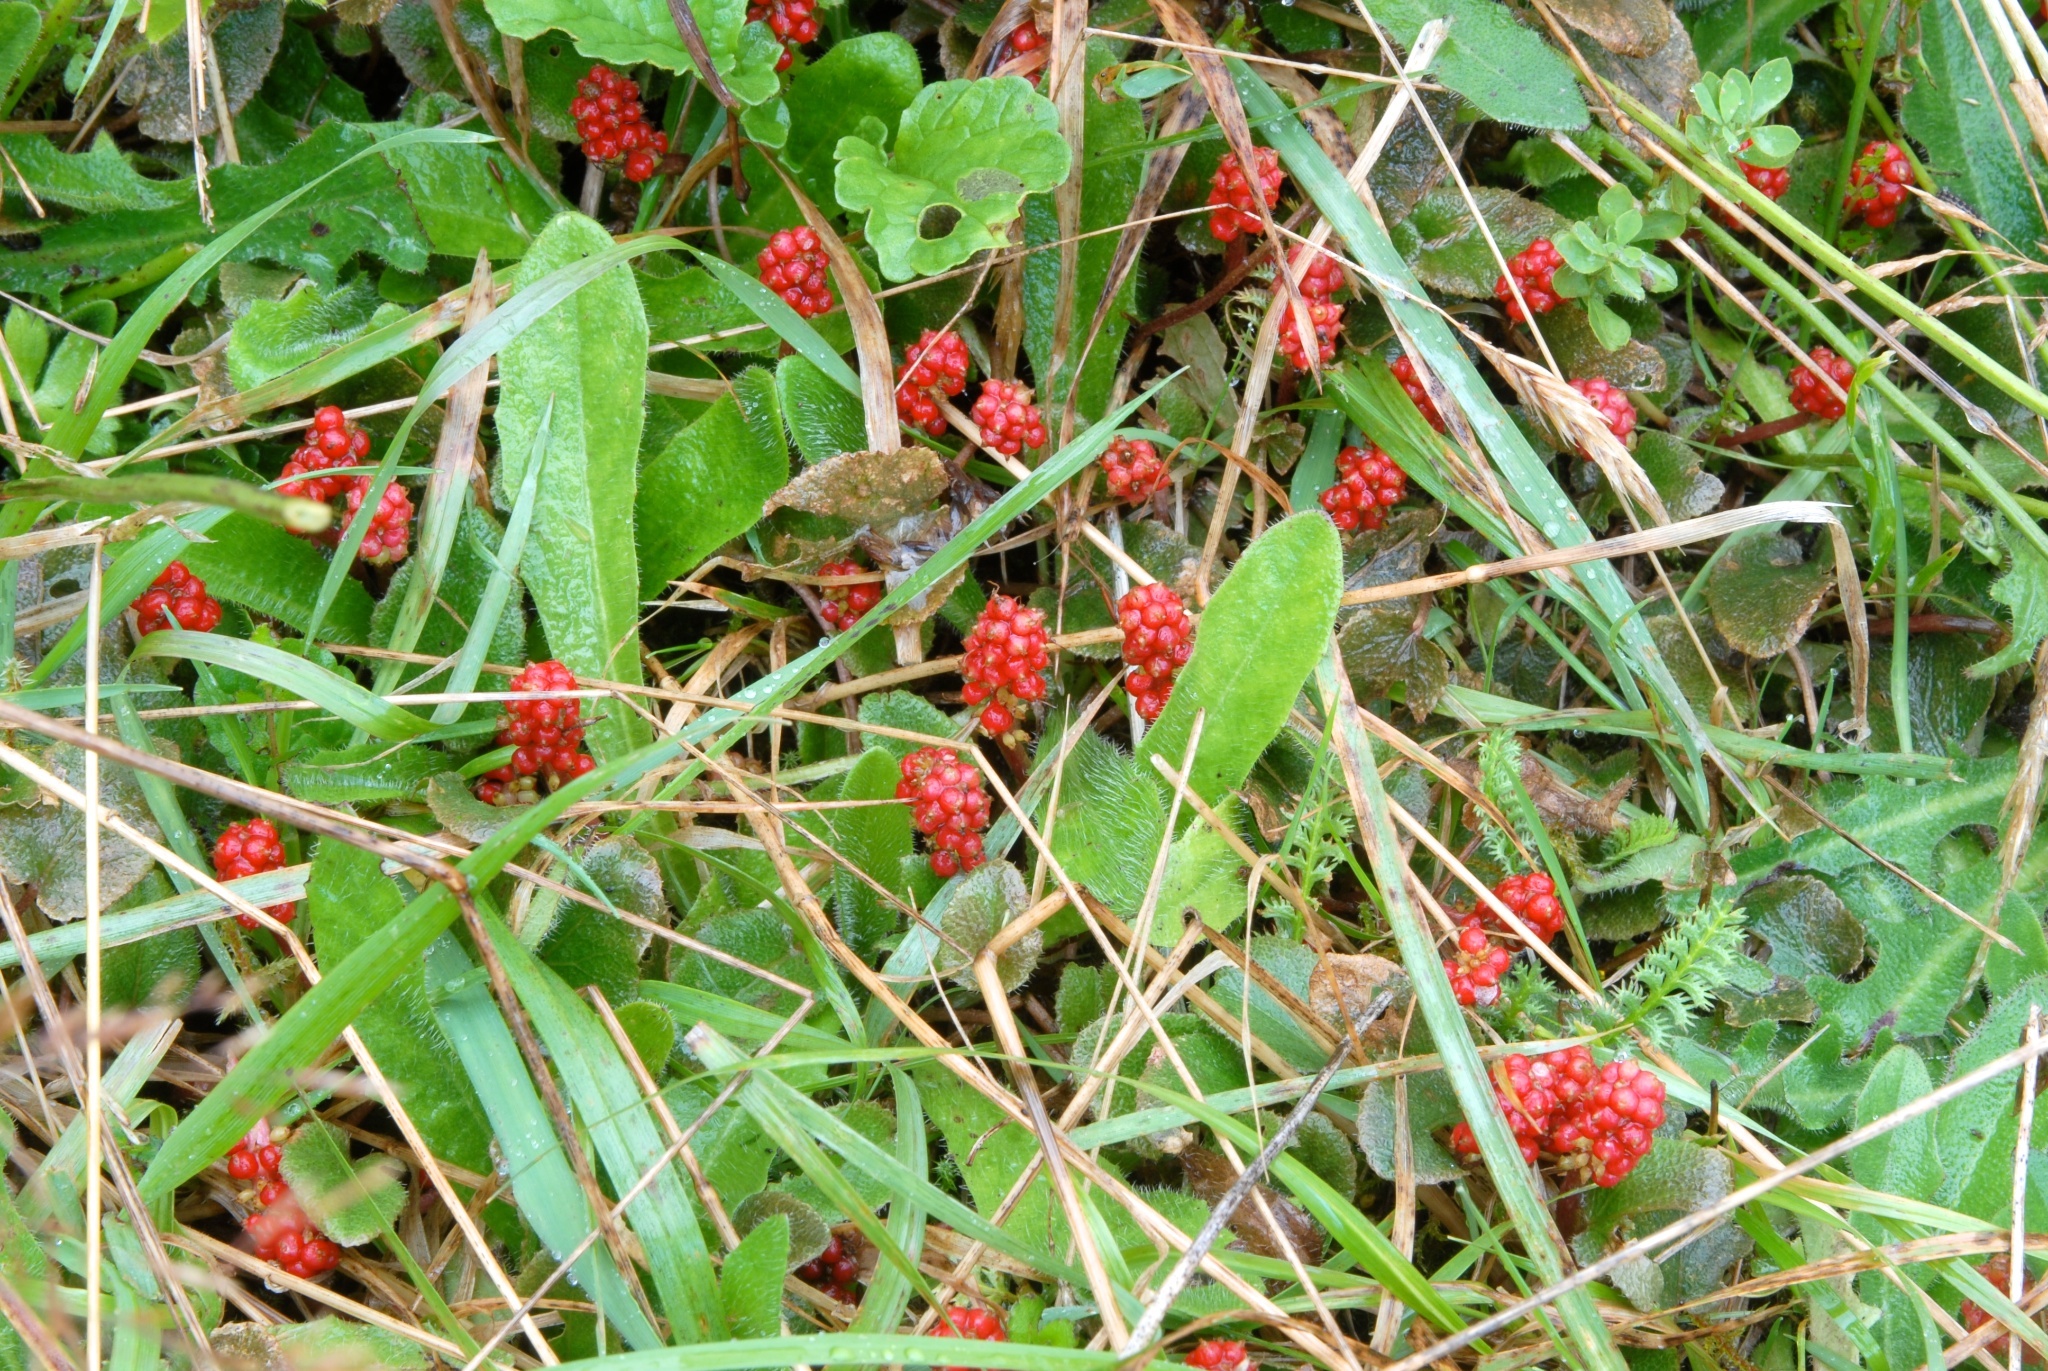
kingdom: Plantae
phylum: Tracheophyta
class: Magnoliopsida
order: Gunnerales
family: Gunneraceae
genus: Gunnera
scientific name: Gunnera prorepens
